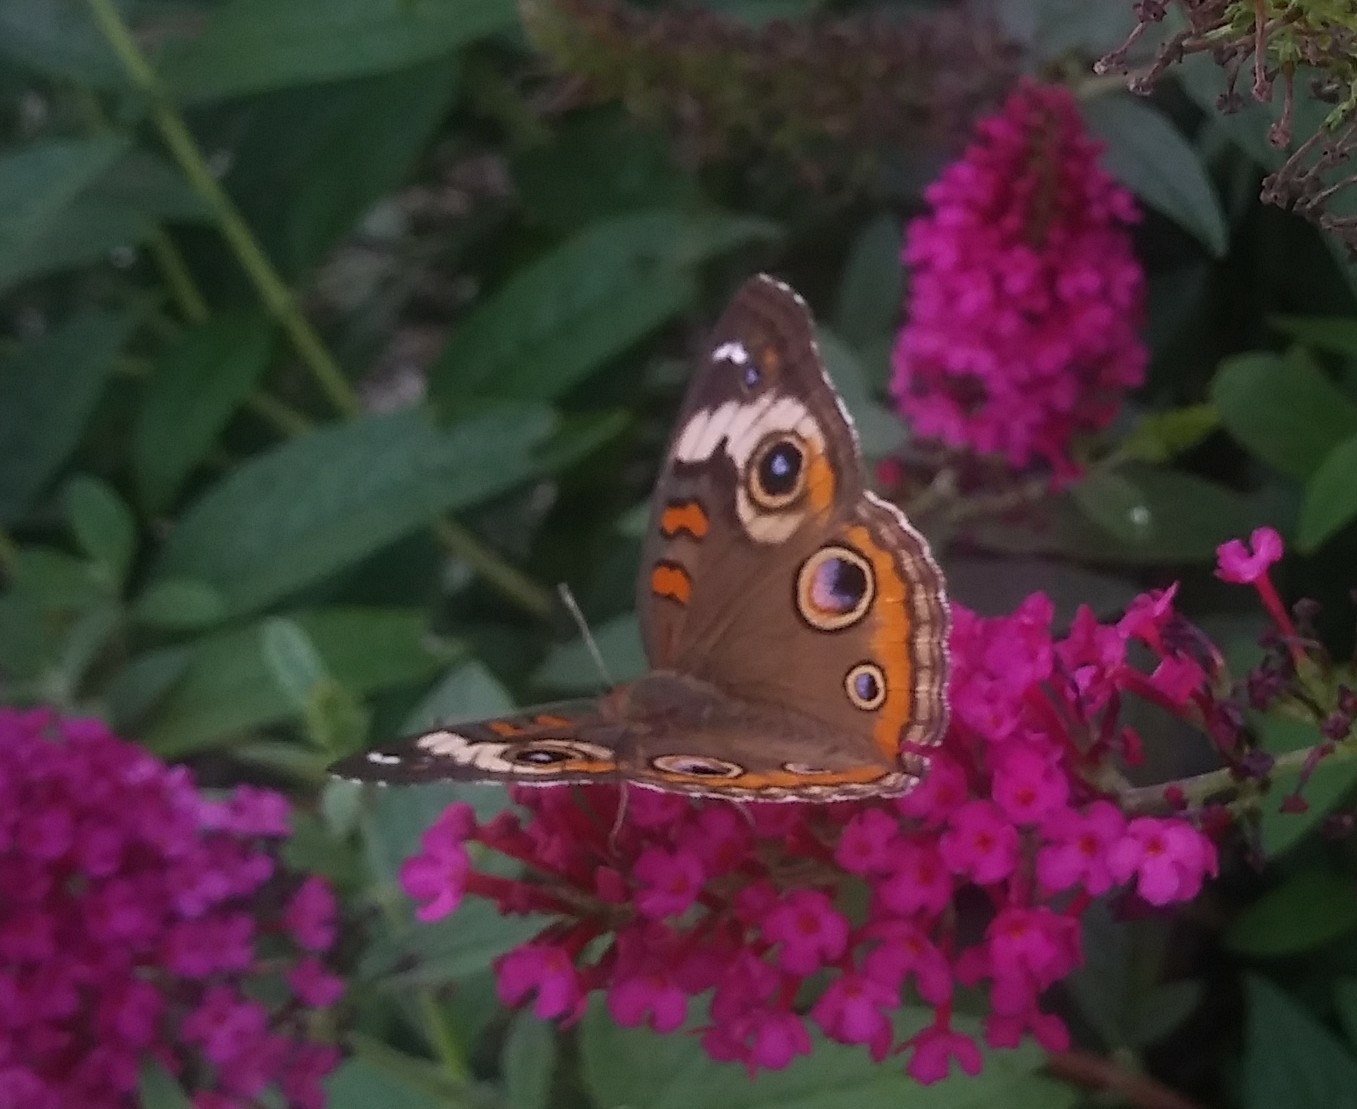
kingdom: Animalia
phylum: Arthropoda
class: Insecta
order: Lepidoptera
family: Nymphalidae
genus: Junonia
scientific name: Junonia coenia
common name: Common buckeye
